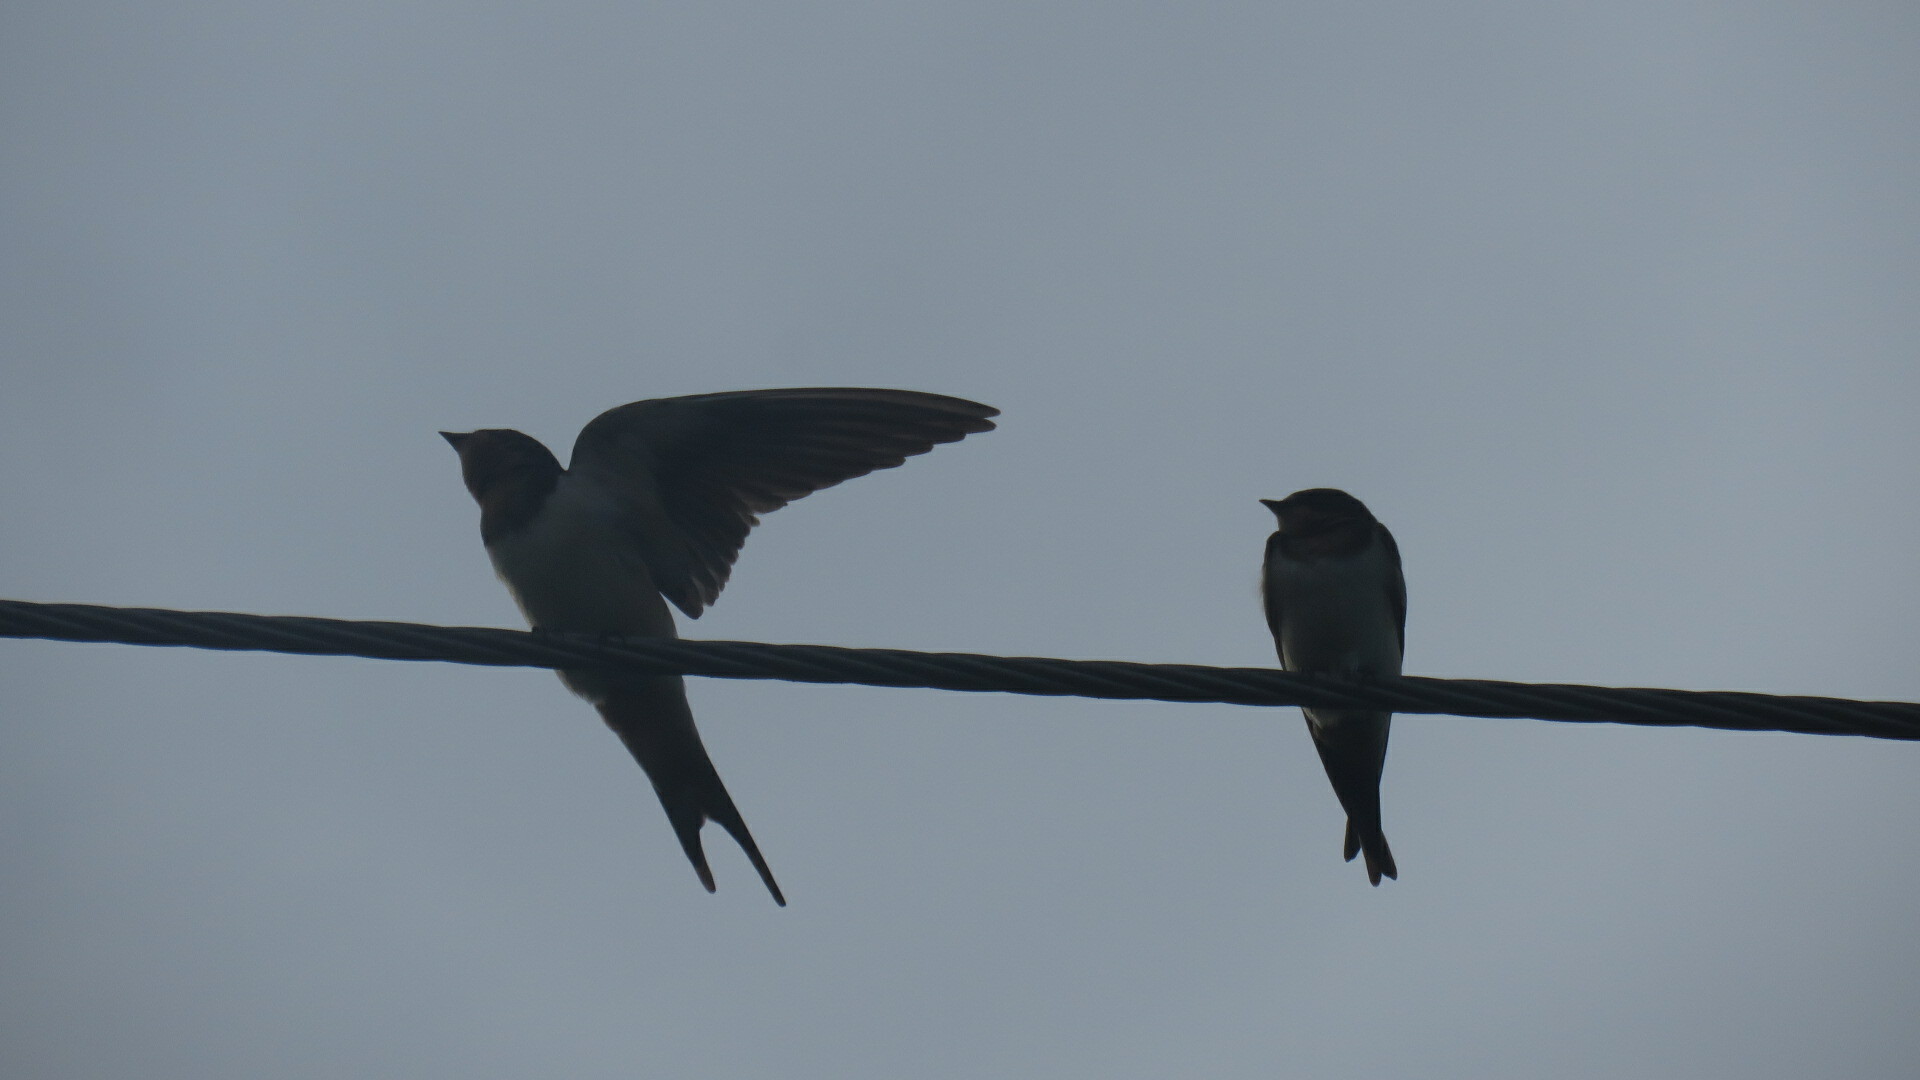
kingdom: Animalia
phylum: Chordata
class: Aves
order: Passeriformes
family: Hirundinidae
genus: Hirundo
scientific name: Hirundo rustica
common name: Barn swallow
